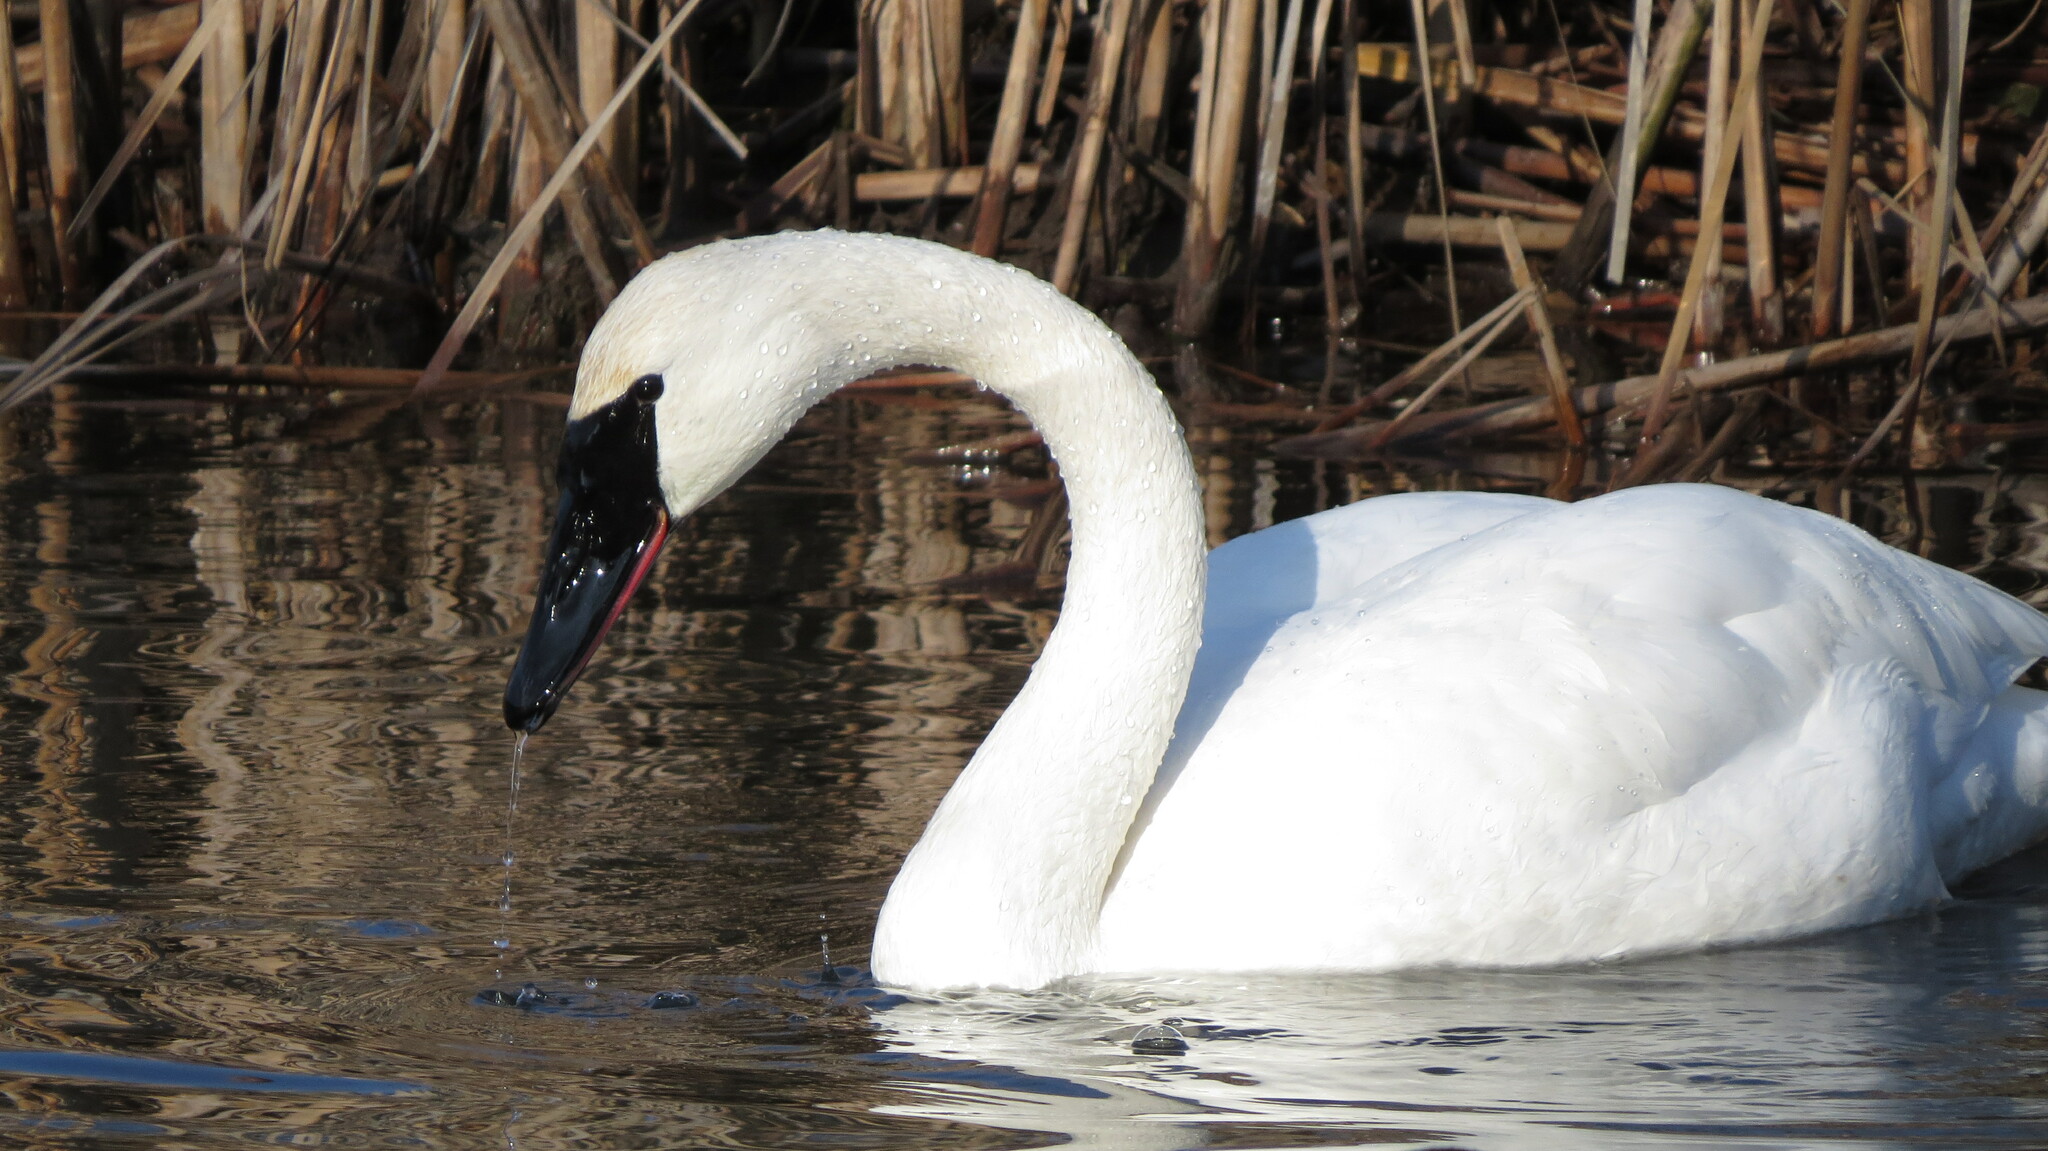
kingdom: Animalia
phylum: Chordata
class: Aves
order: Anseriformes
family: Anatidae
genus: Cygnus
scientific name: Cygnus buccinator
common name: Trumpeter swan
